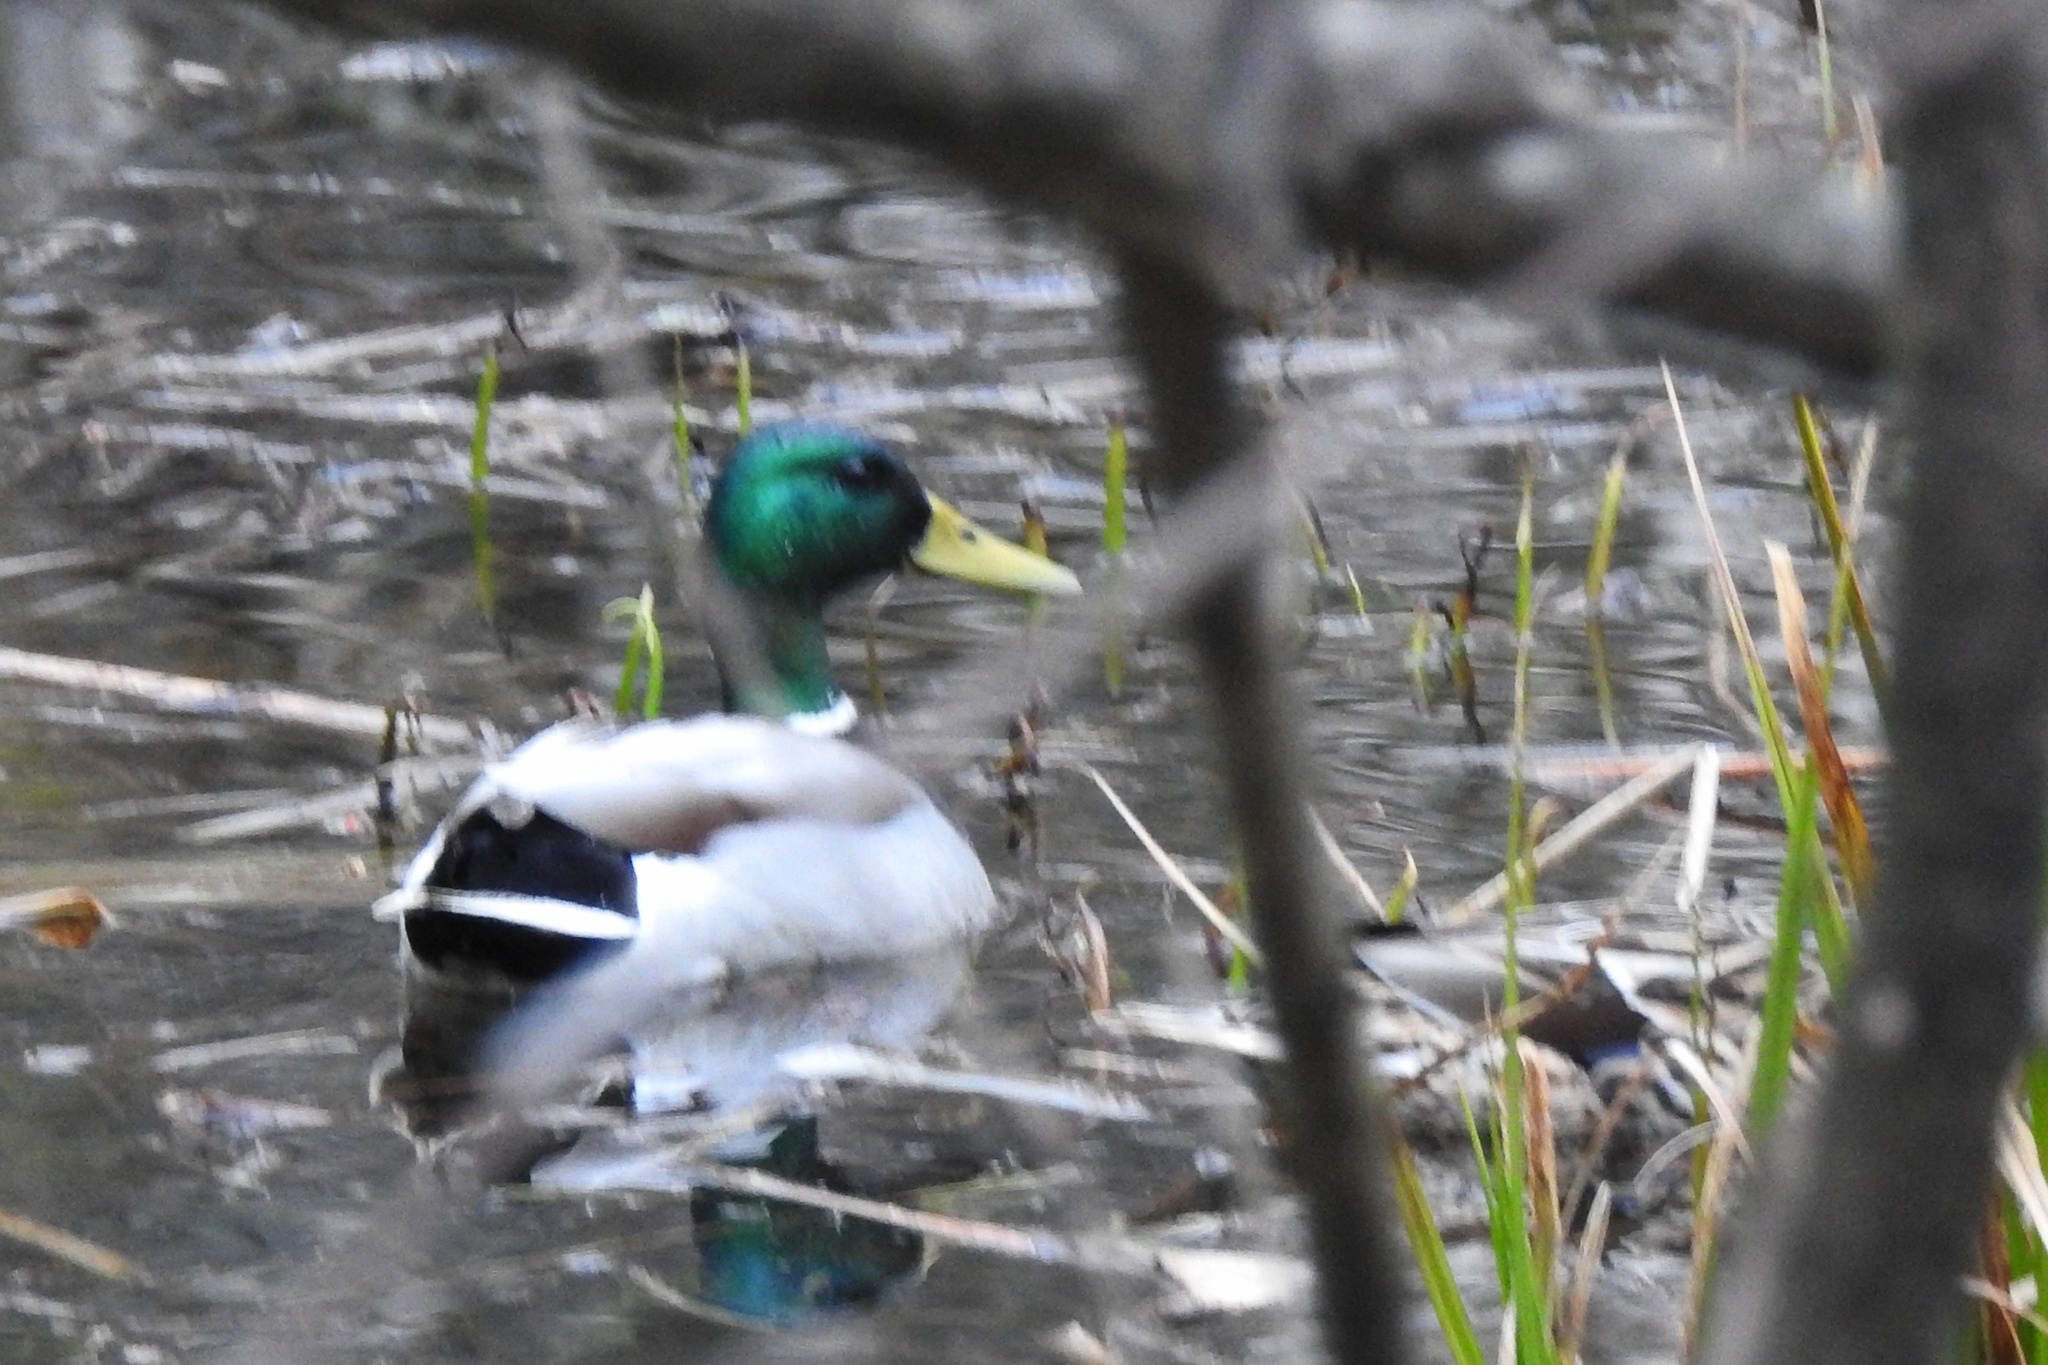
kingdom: Animalia
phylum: Chordata
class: Aves
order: Anseriformes
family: Anatidae
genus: Anas
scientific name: Anas platyrhynchos
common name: Mallard
